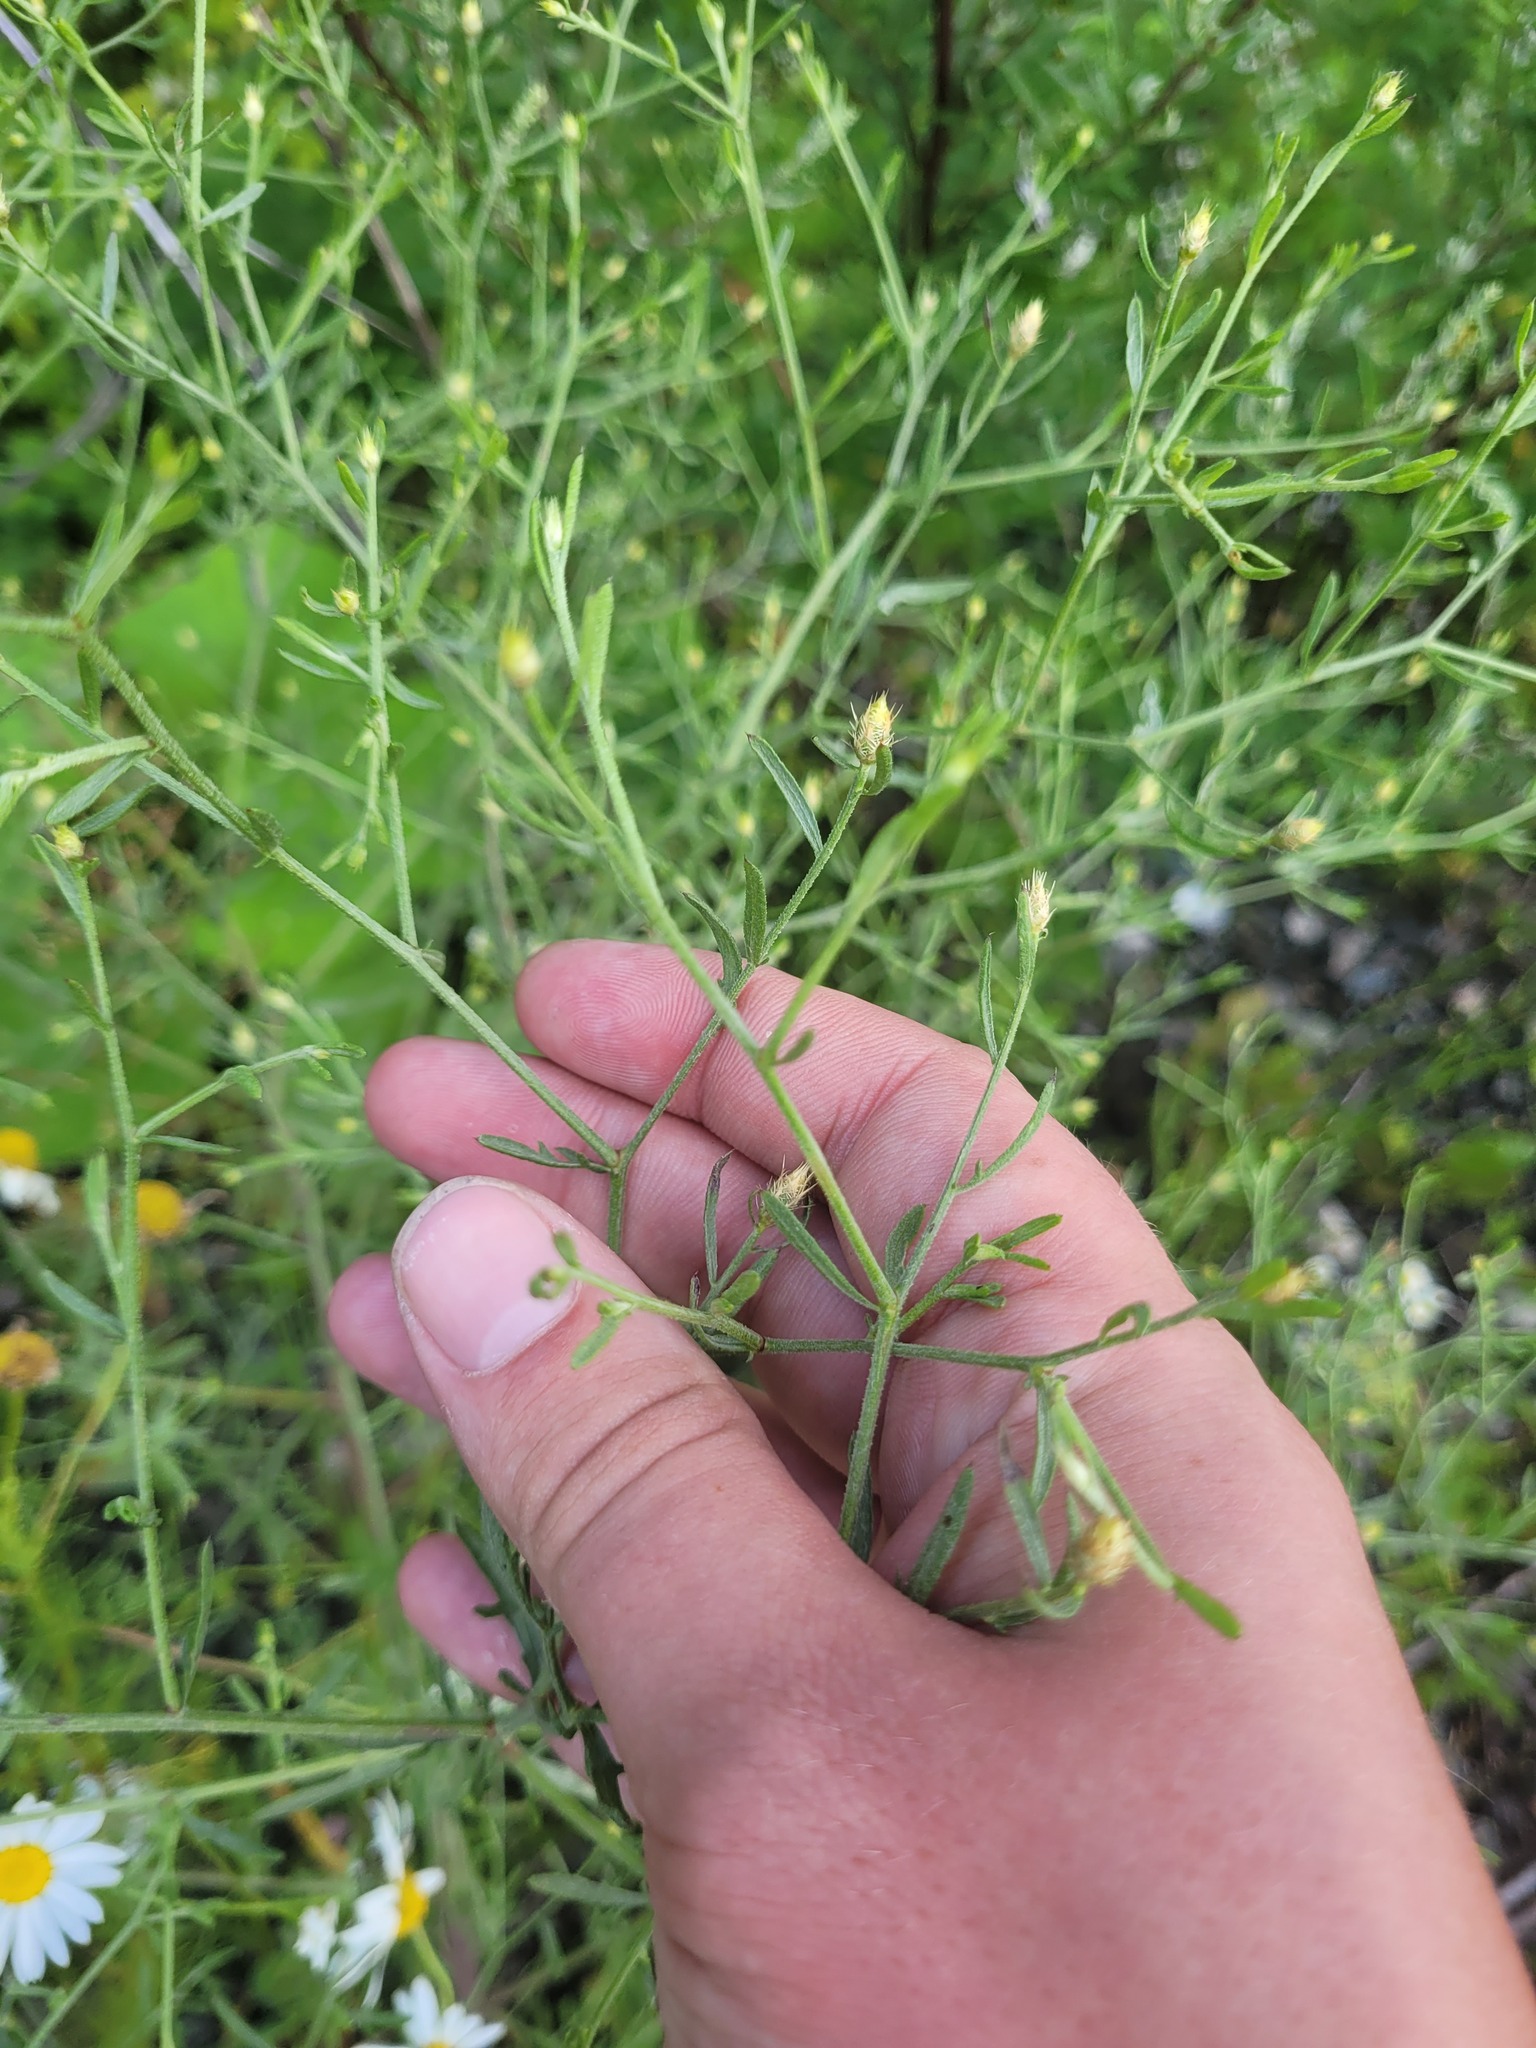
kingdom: Plantae
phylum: Tracheophyta
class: Magnoliopsida
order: Asterales
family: Asteraceae
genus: Centaurea
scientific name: Centaurea diffusa
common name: Diffuse knapweed
